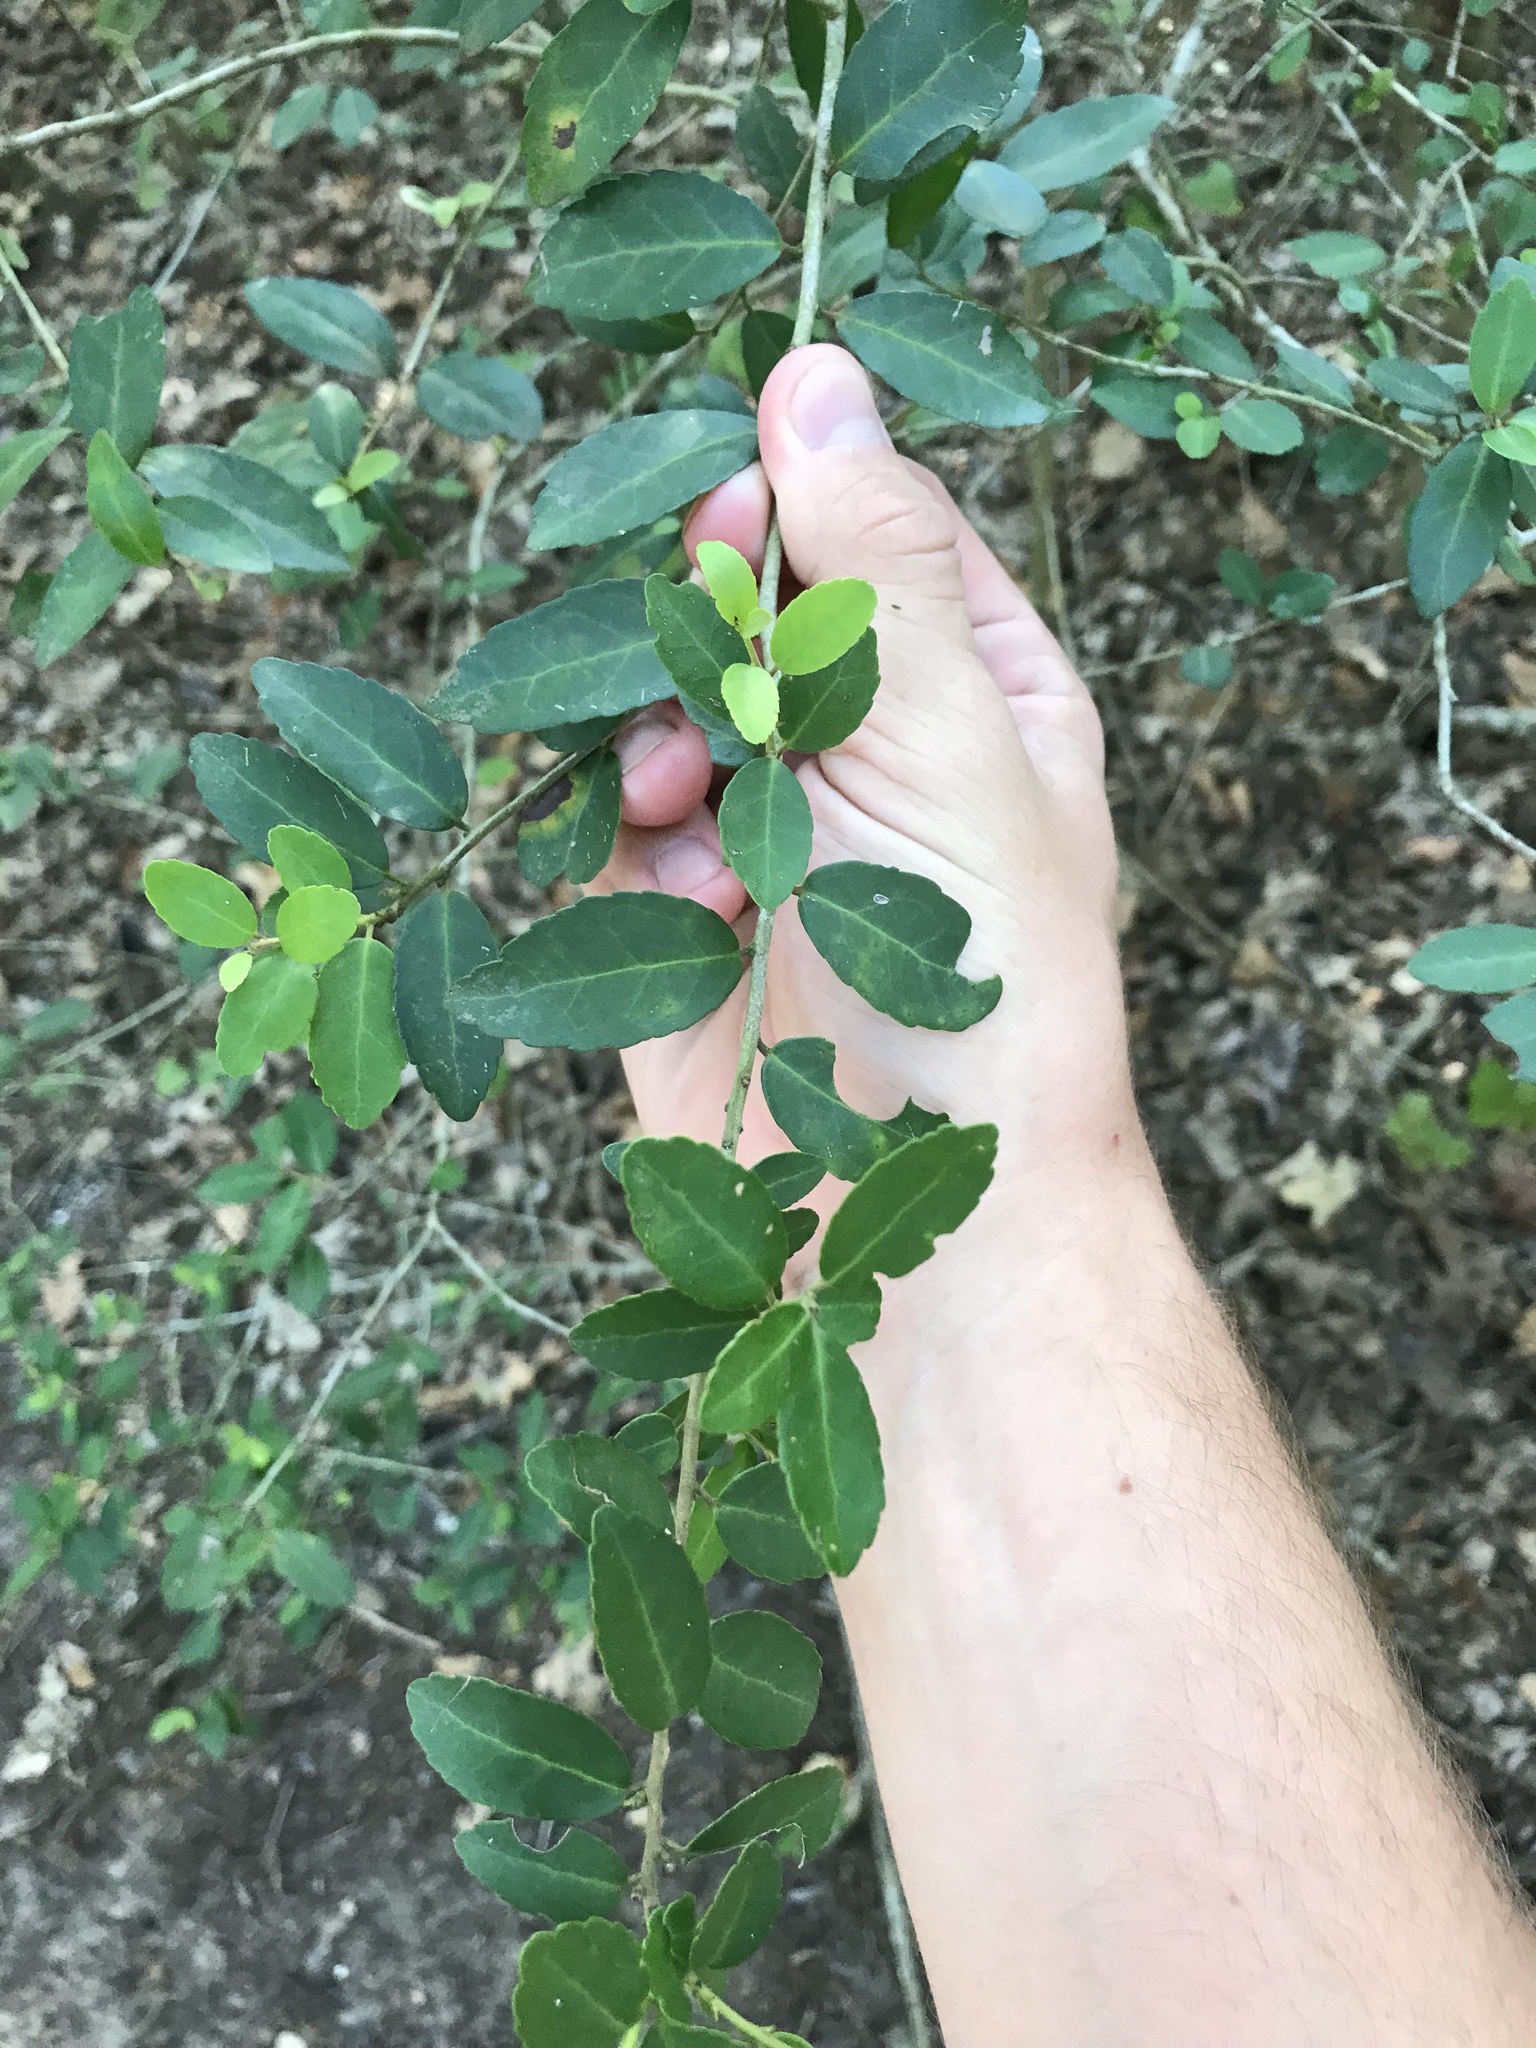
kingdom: Plantae
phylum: Tracheophyta
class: Magnoliopsida
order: Aquifoliales
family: Aquifoliaceae
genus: Ilex
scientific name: Ilex vomitoria
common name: Yaupon holly
